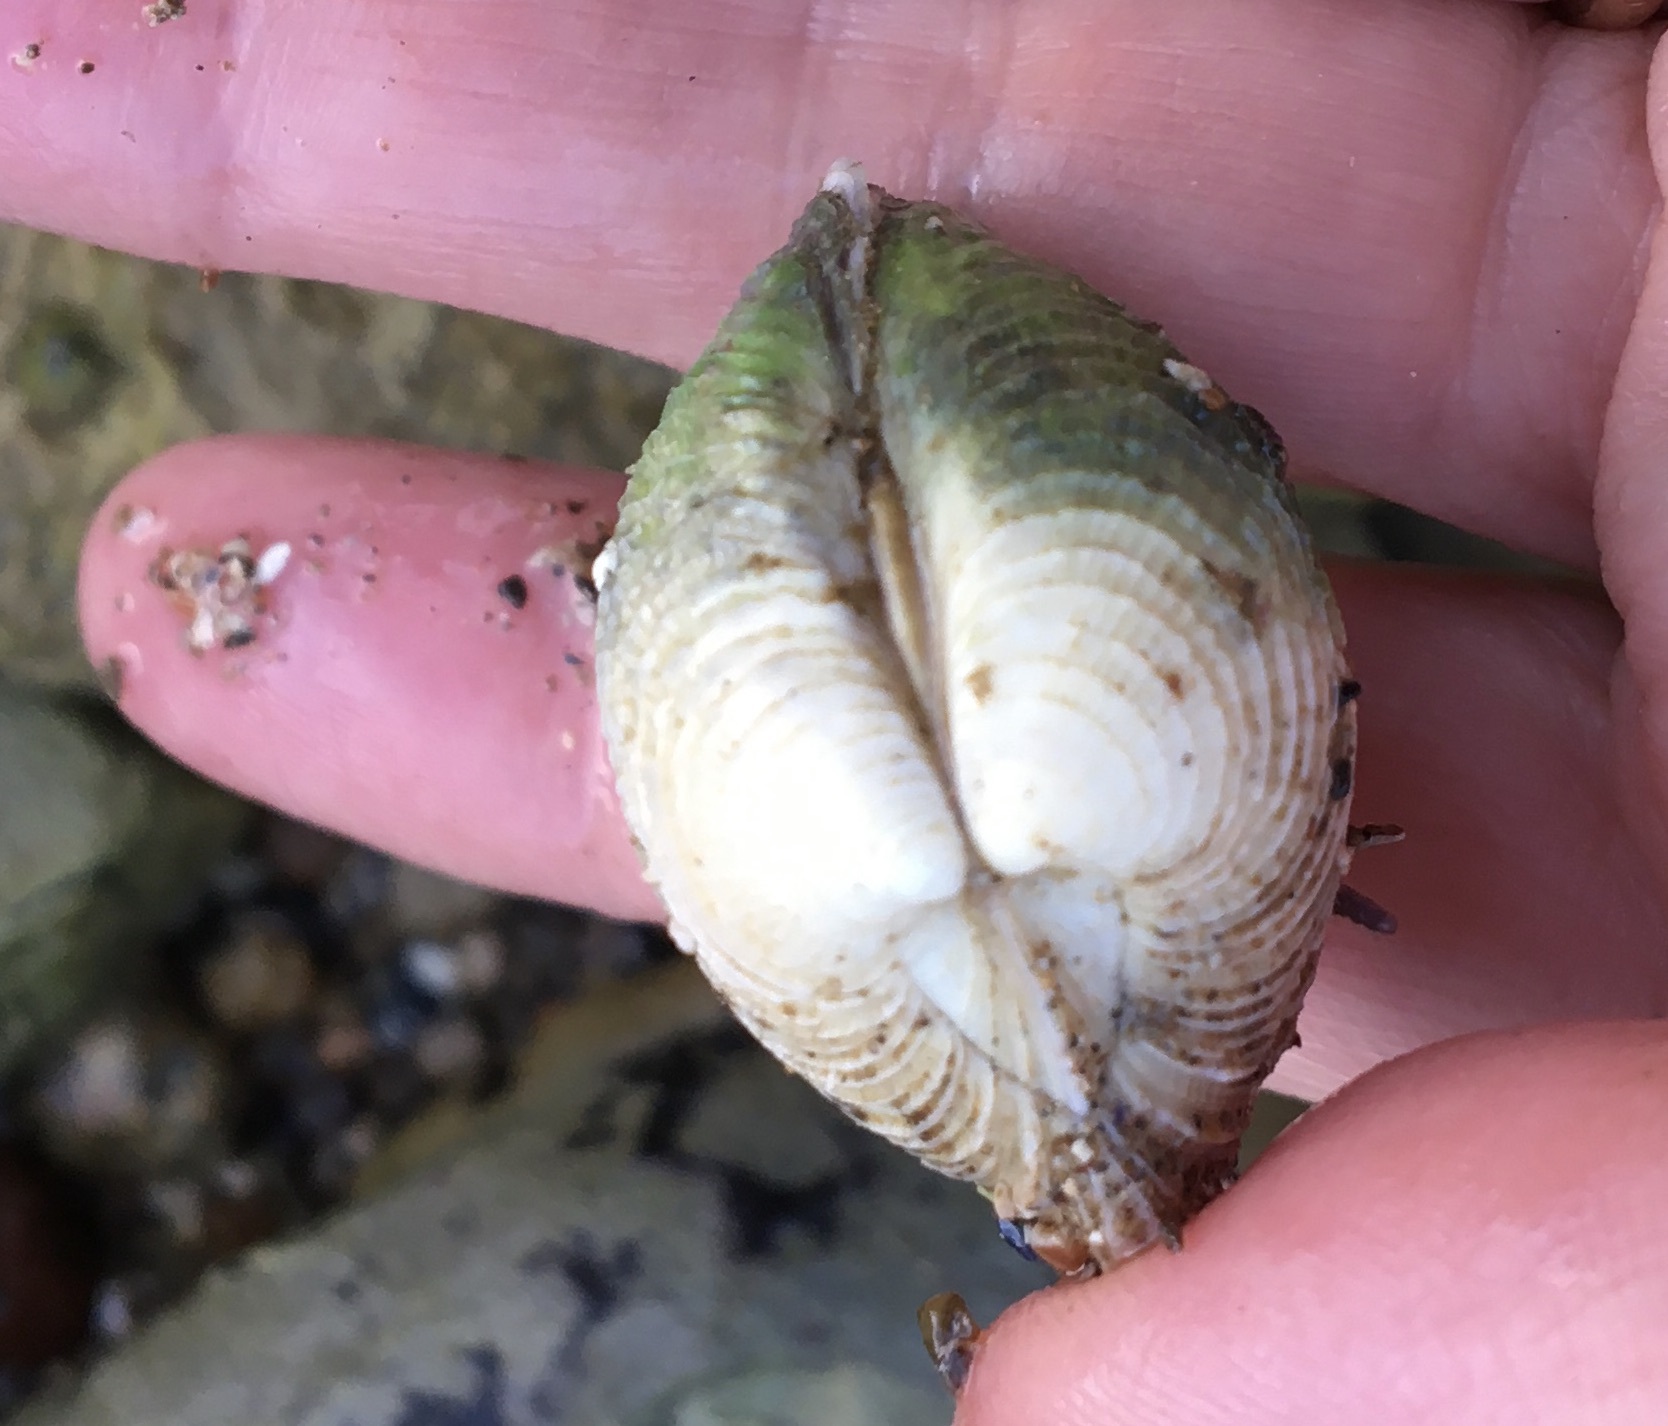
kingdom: Animalia
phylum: Mollusca
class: Bivalvia
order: Venerida
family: Veneridae
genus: Chione
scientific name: Chione undatella
